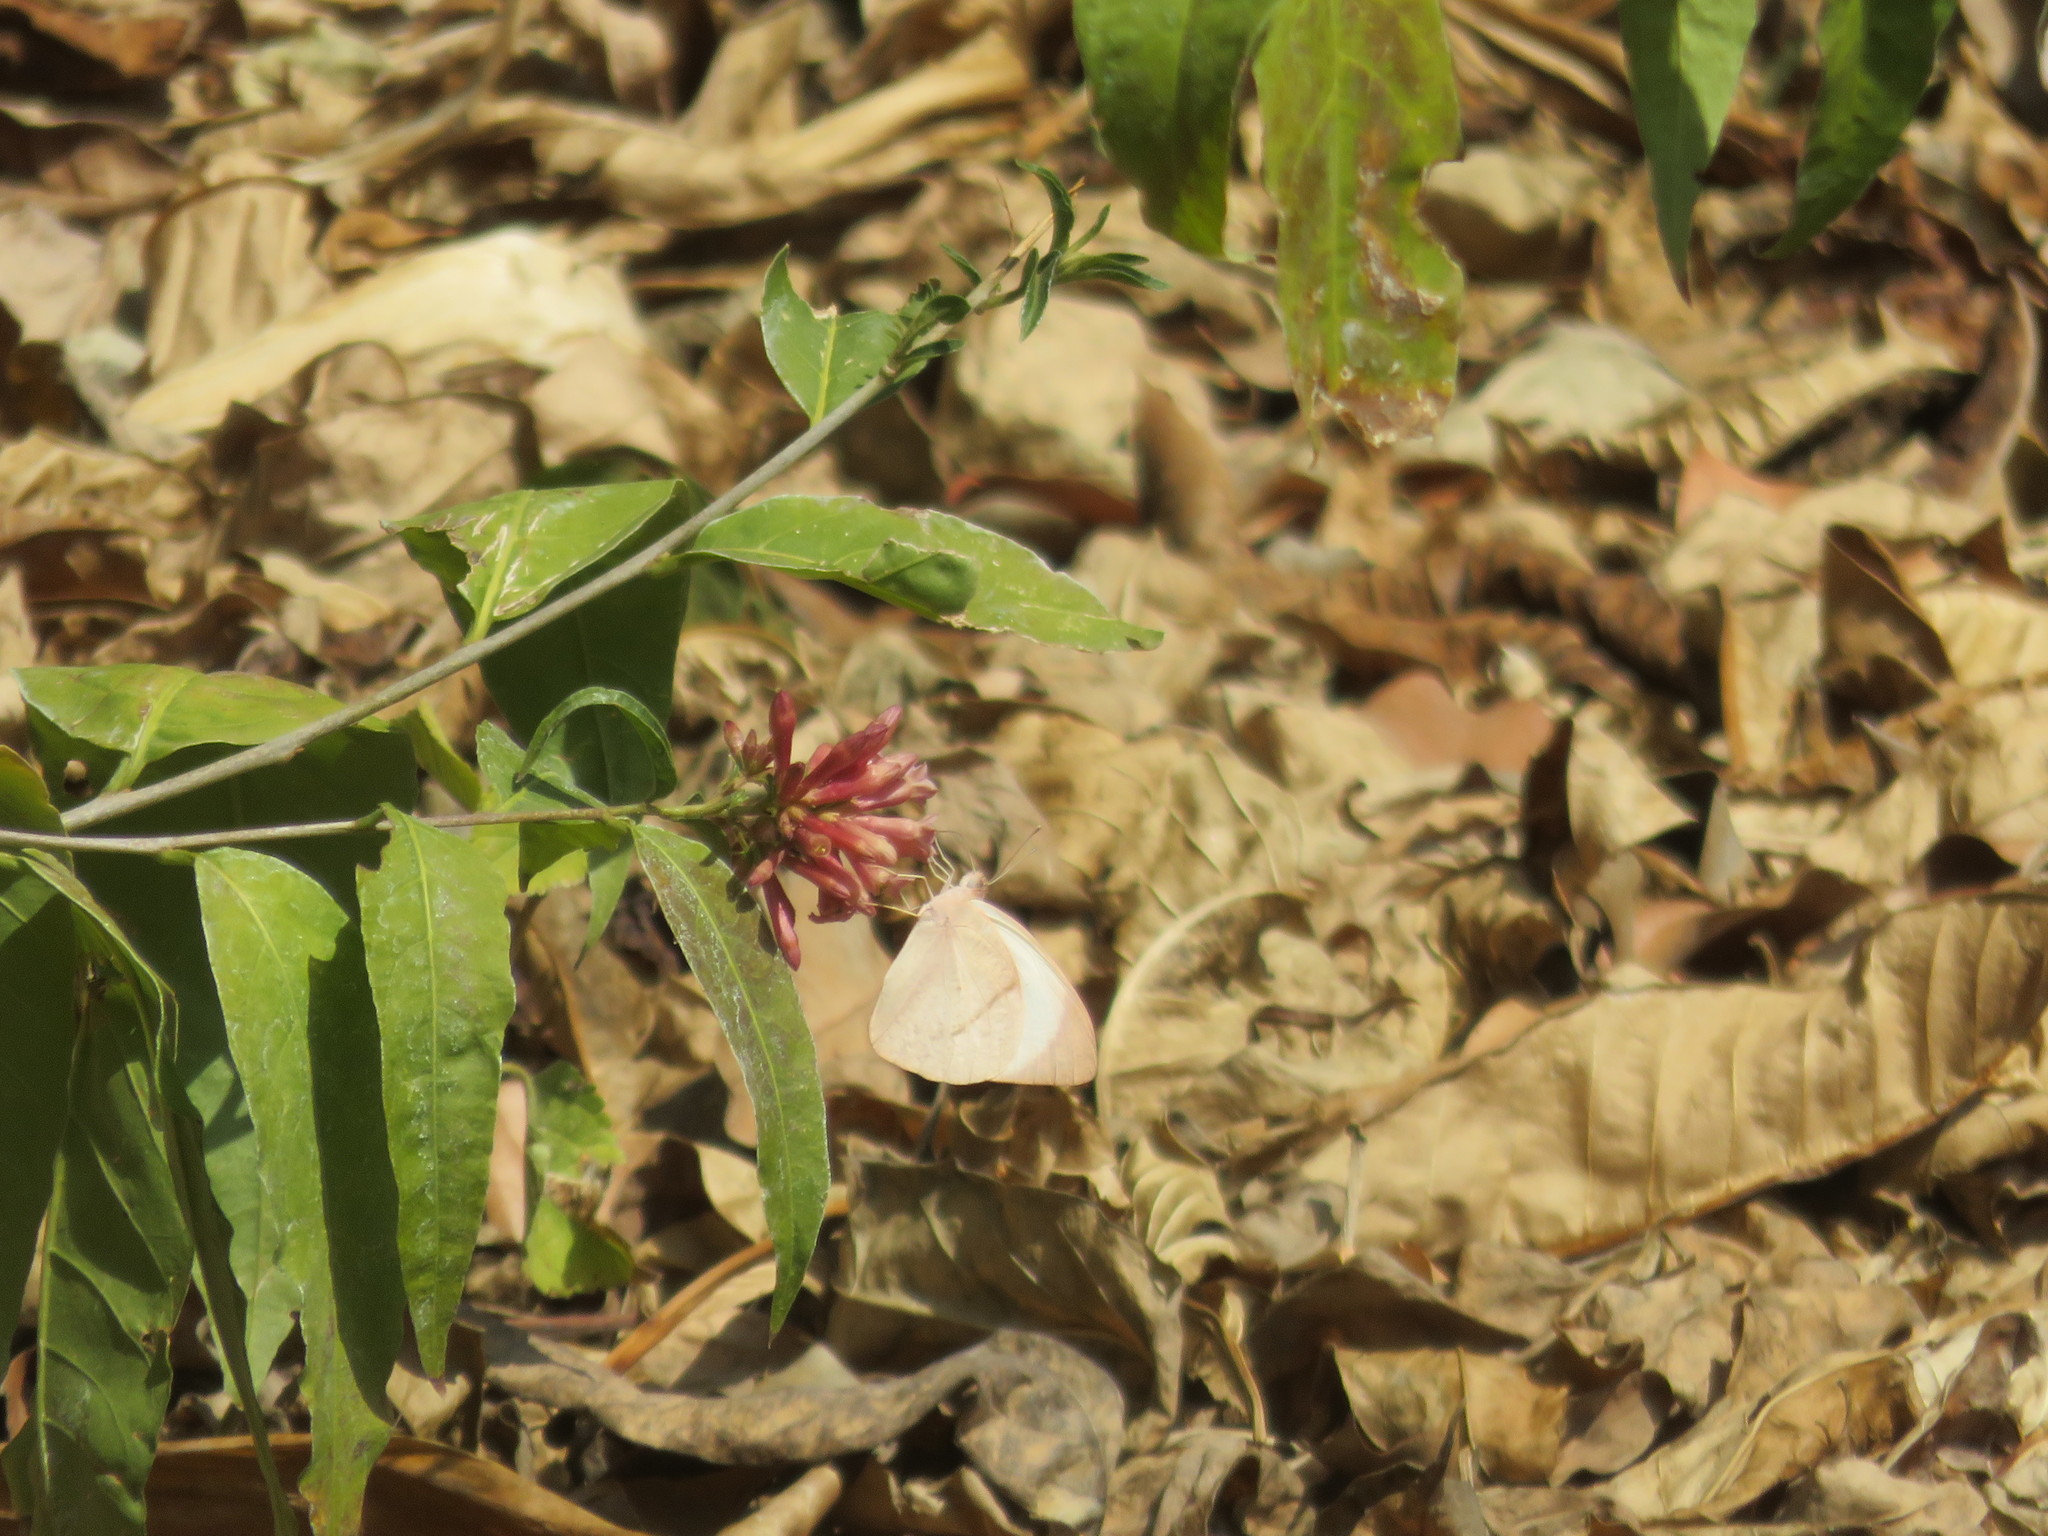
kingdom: Animalia
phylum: Arthropoda
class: Insecta
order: Lepidoptera
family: Pieridae
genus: Colotis
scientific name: Colotis ione
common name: Bushveld purple tip
